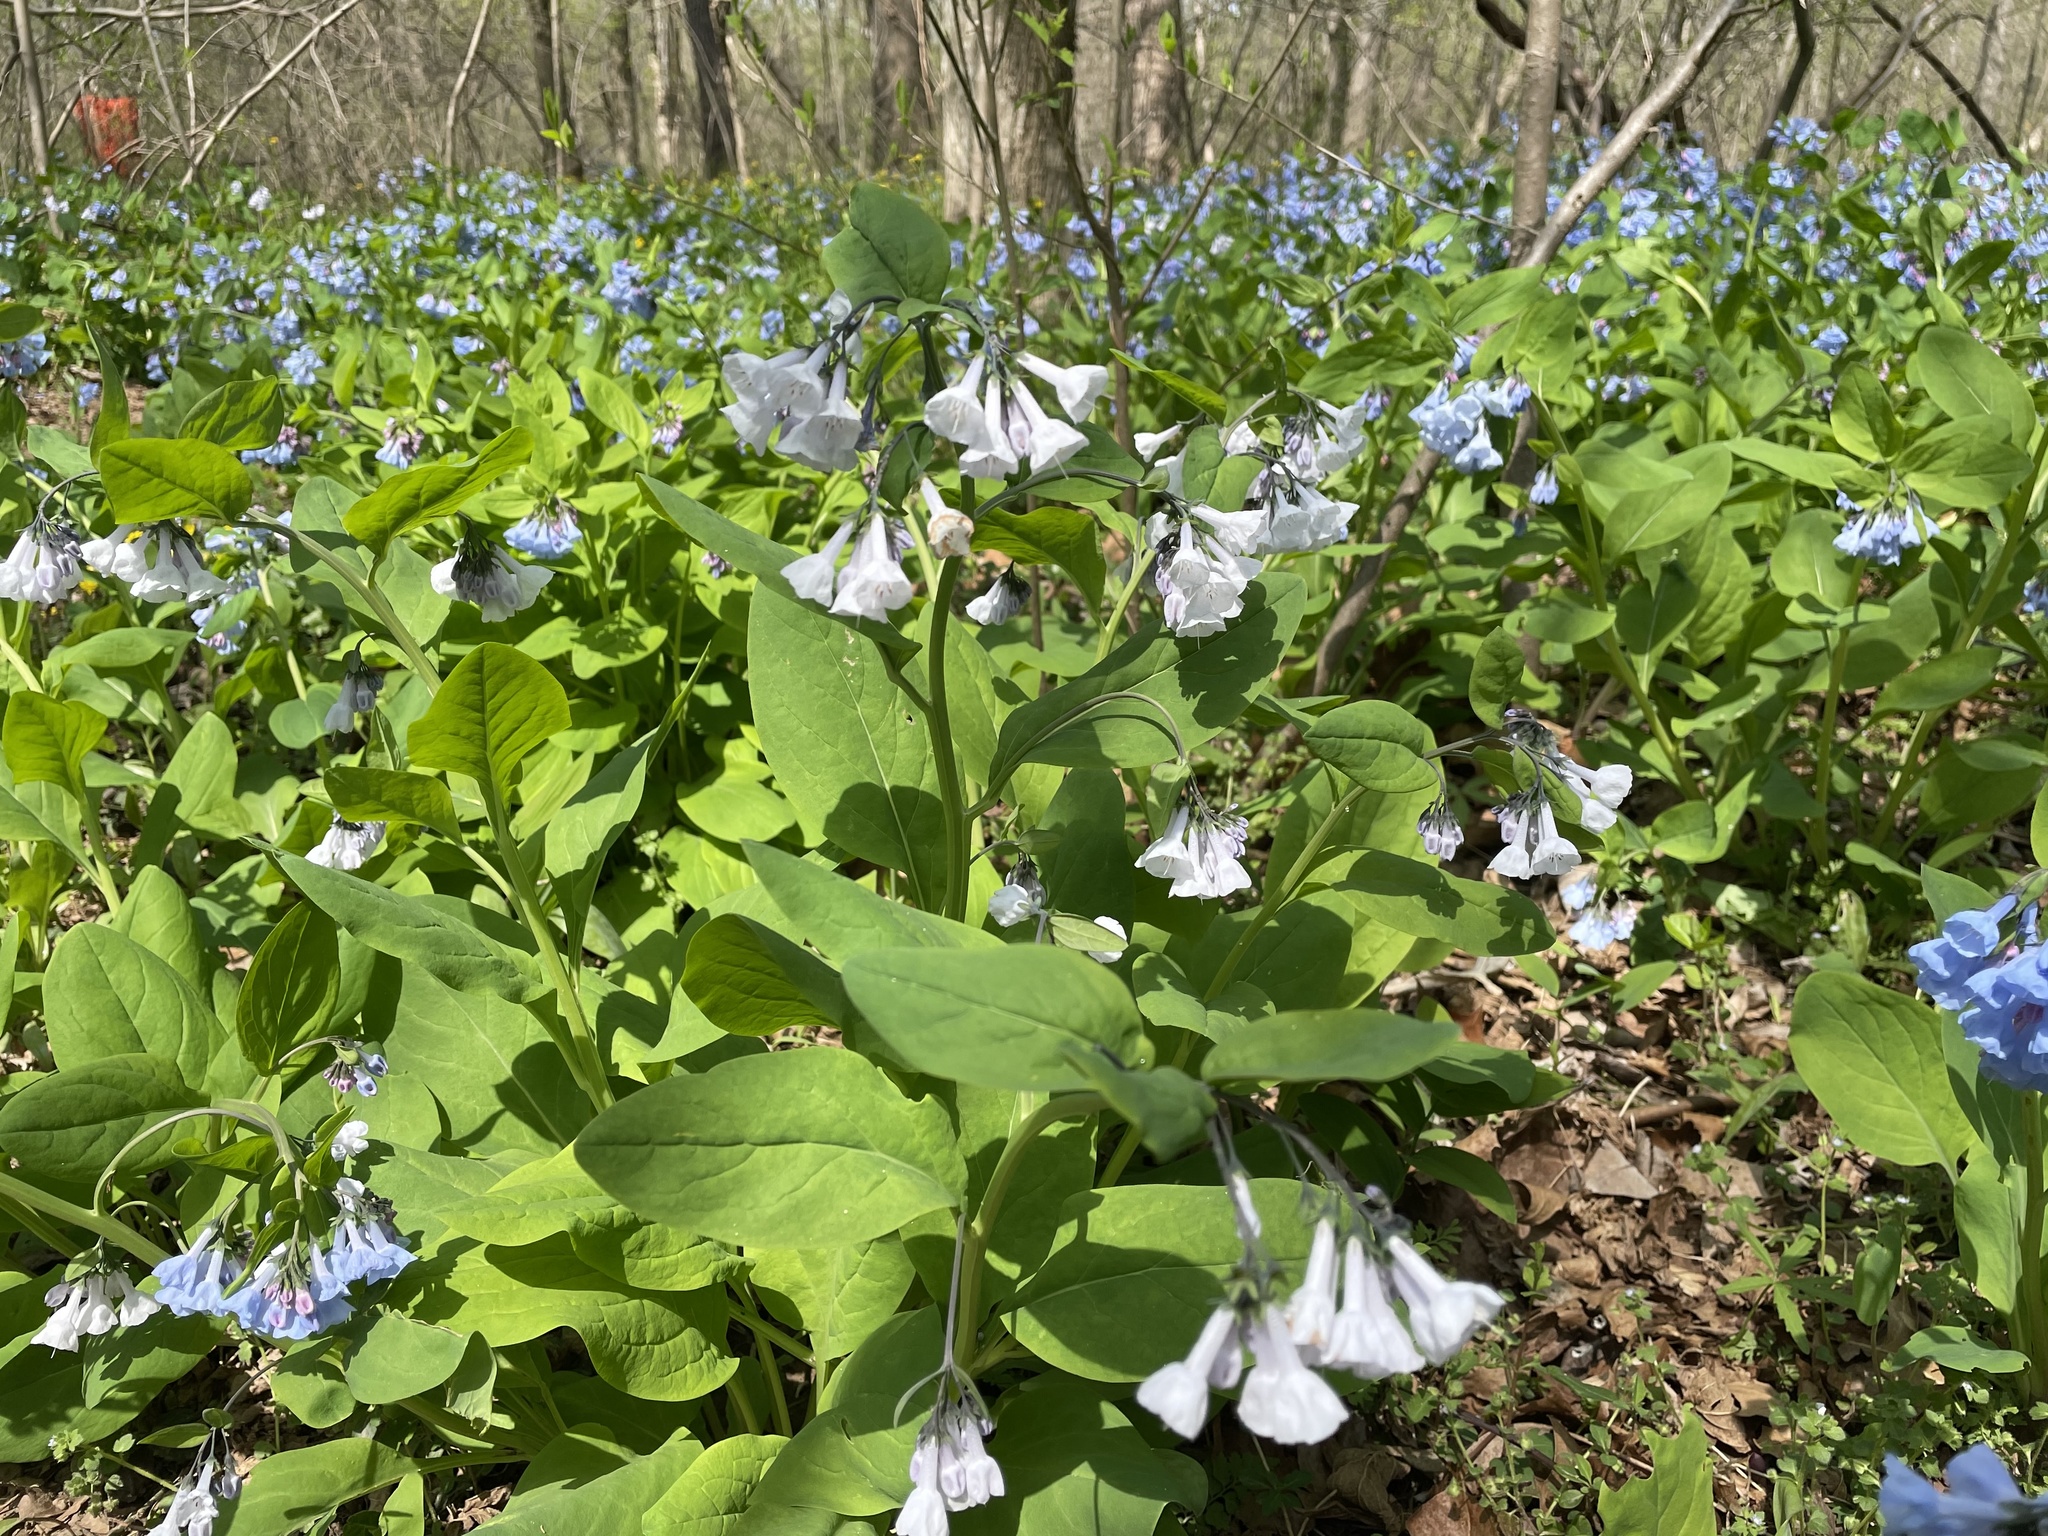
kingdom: Plantae
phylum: Tracheophyta
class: Magnoliopsida
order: Boraginales
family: Boraginaceae
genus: Mertensia
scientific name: Mertensia virginica
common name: Virginia bluebells
